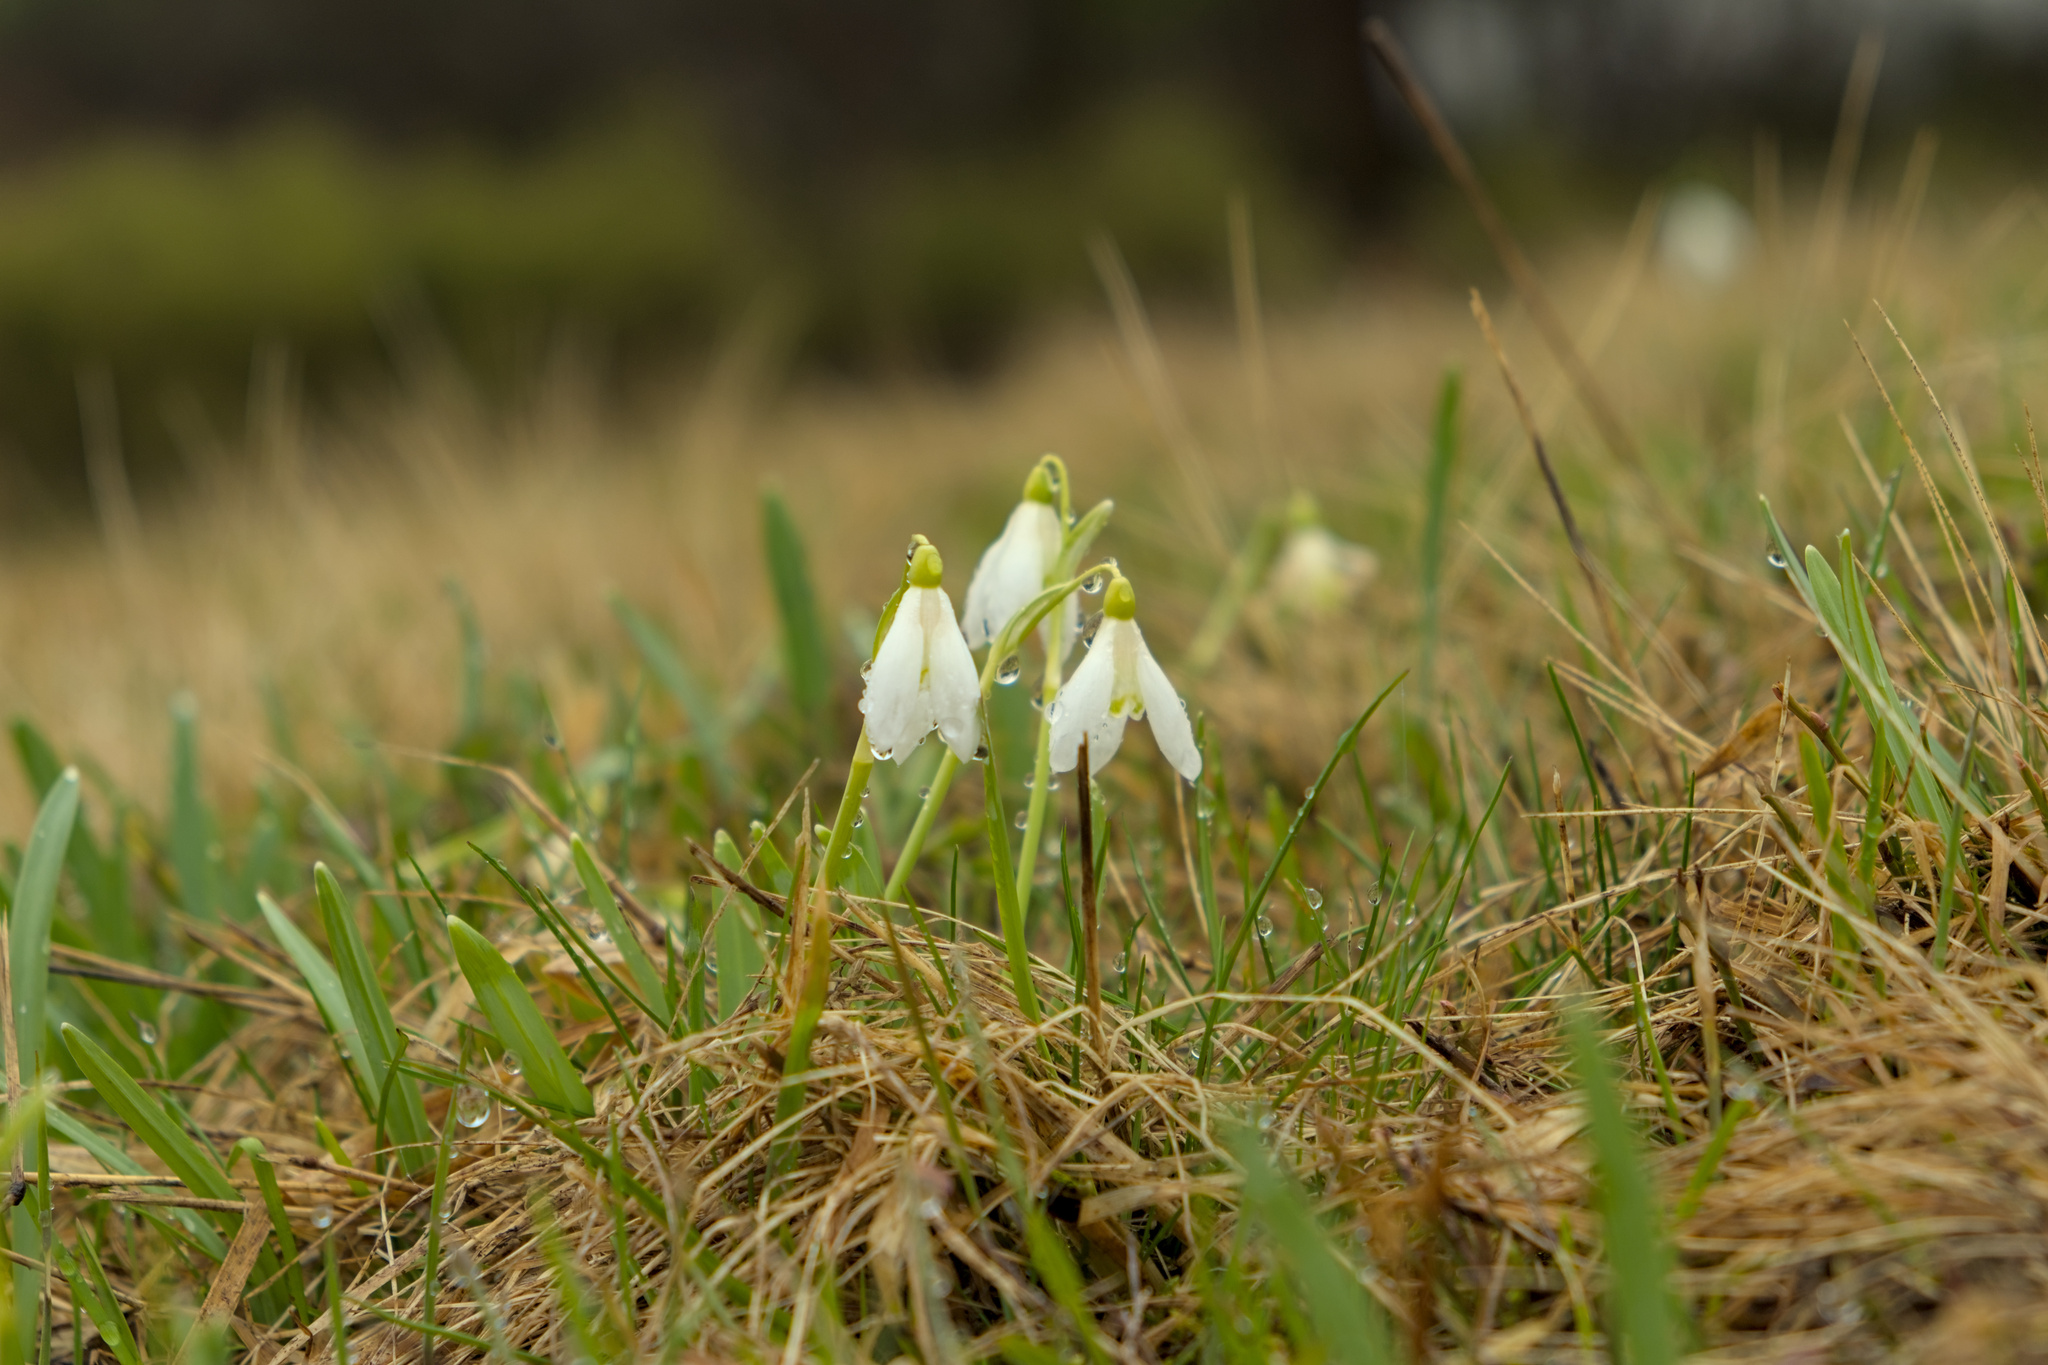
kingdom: Plantae
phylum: Tracheophyta
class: Liliopsida
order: Asparagales
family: Amaryllidaceae
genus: Galanthus
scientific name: Galanthus nivalis
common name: Snowdrop
